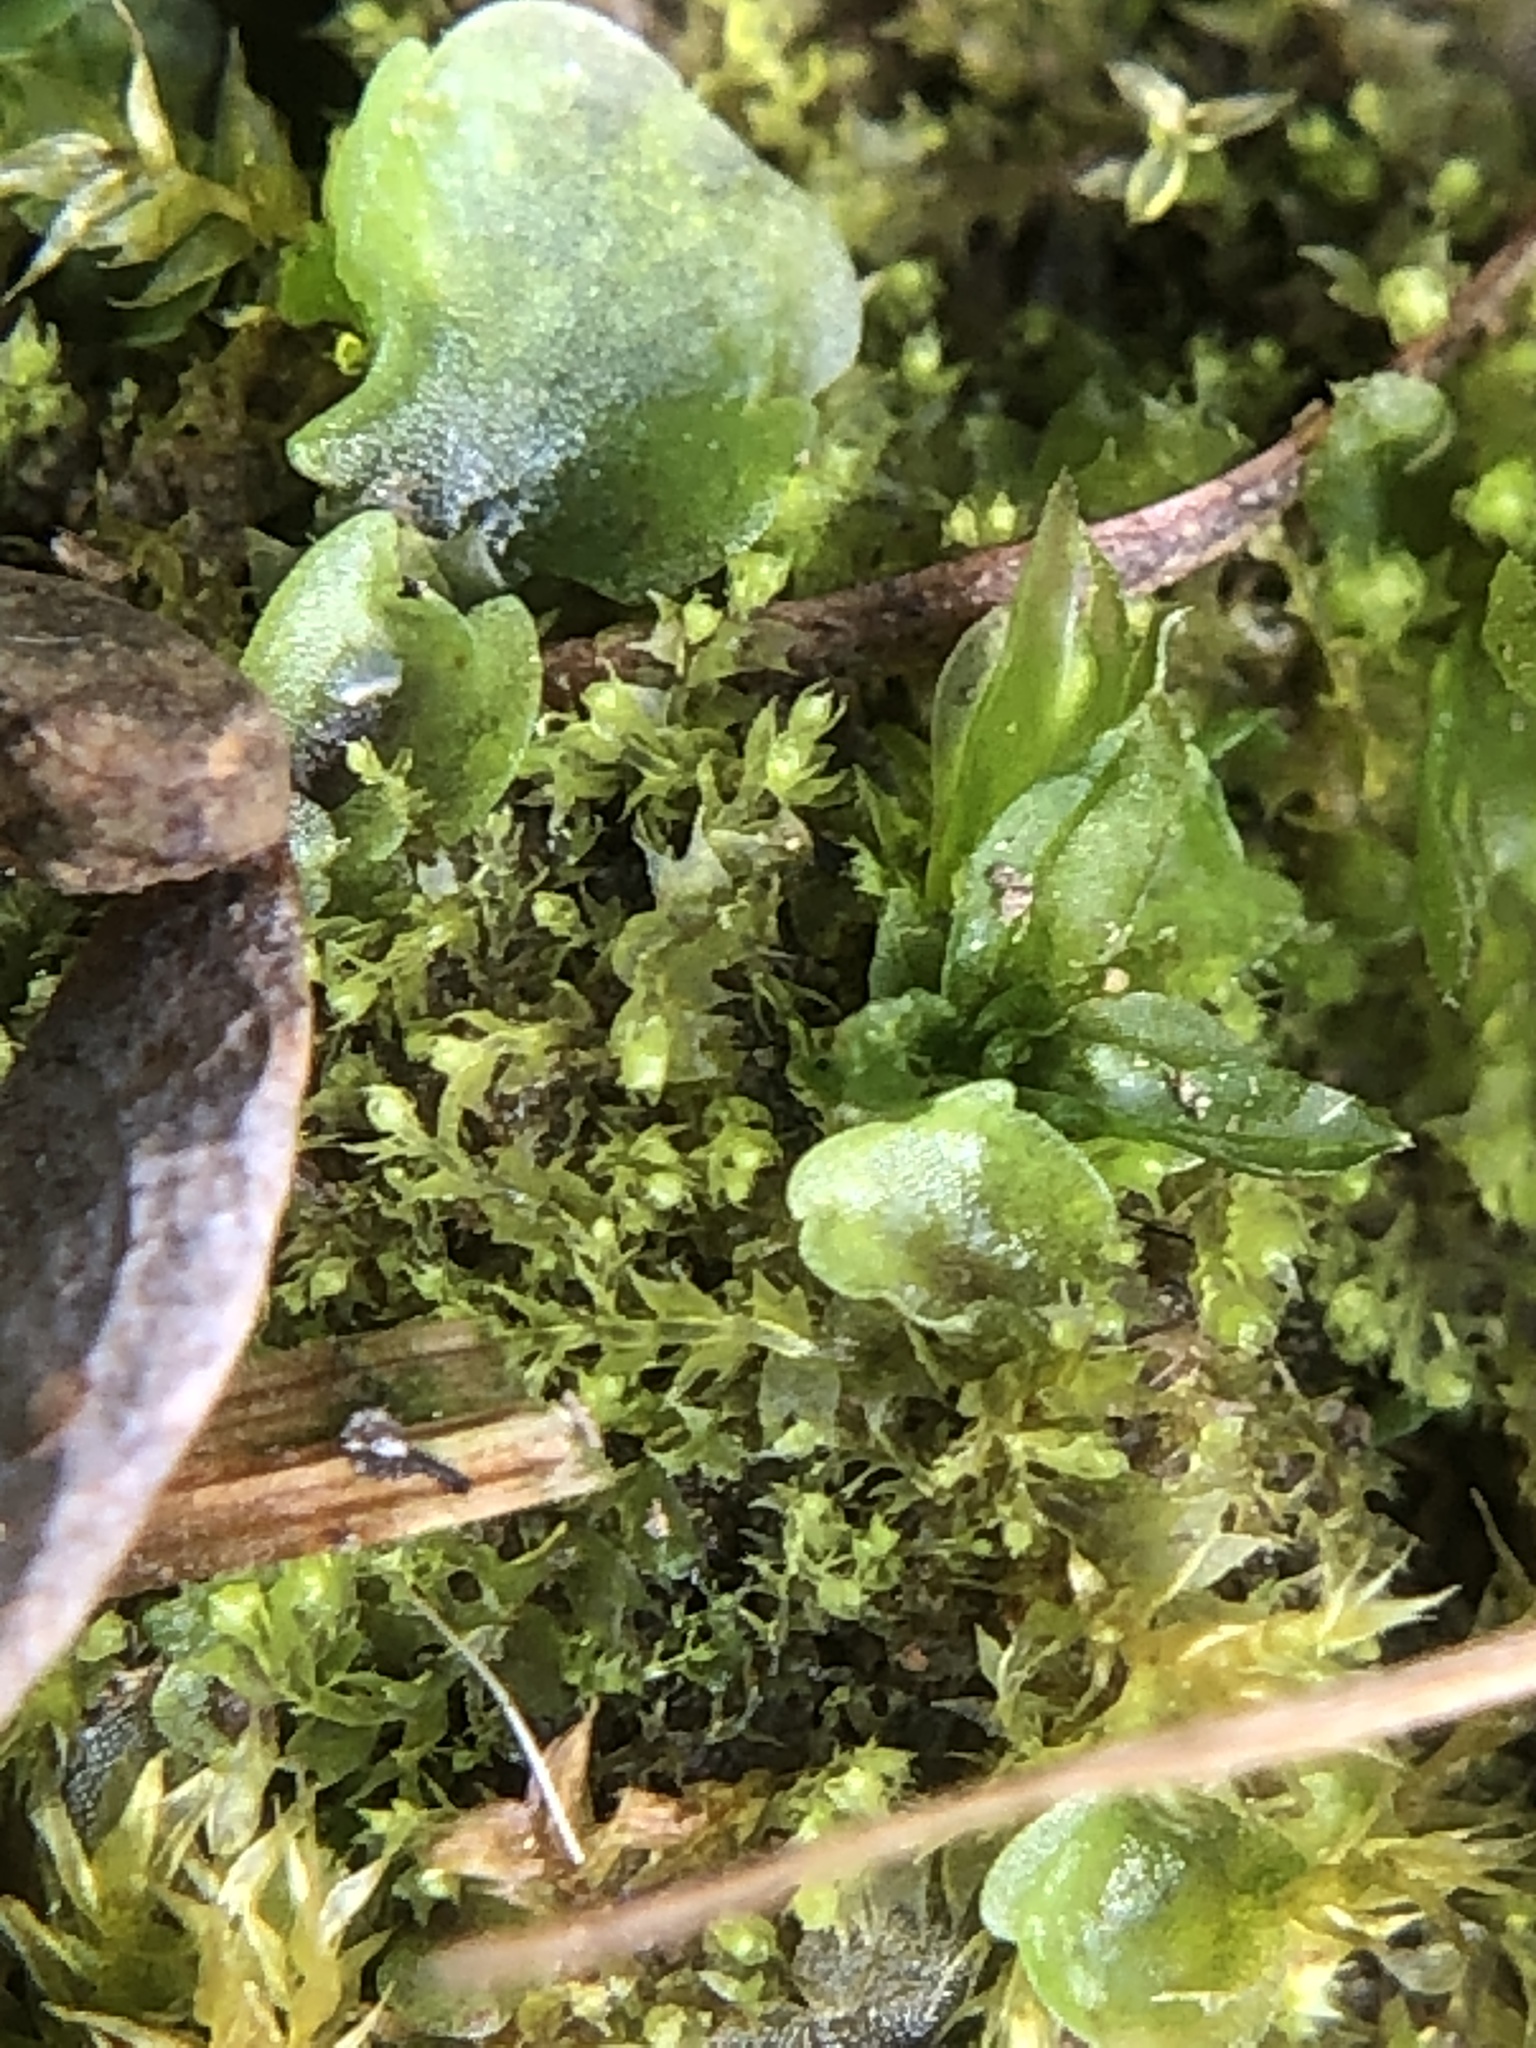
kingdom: Plantae
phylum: Marchantiophyta
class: Jungermanniopsida
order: Jungermanniales
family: Lophocoleaceae
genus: Lophocolea
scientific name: Lophocolea bispinosa
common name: Great crestwort
